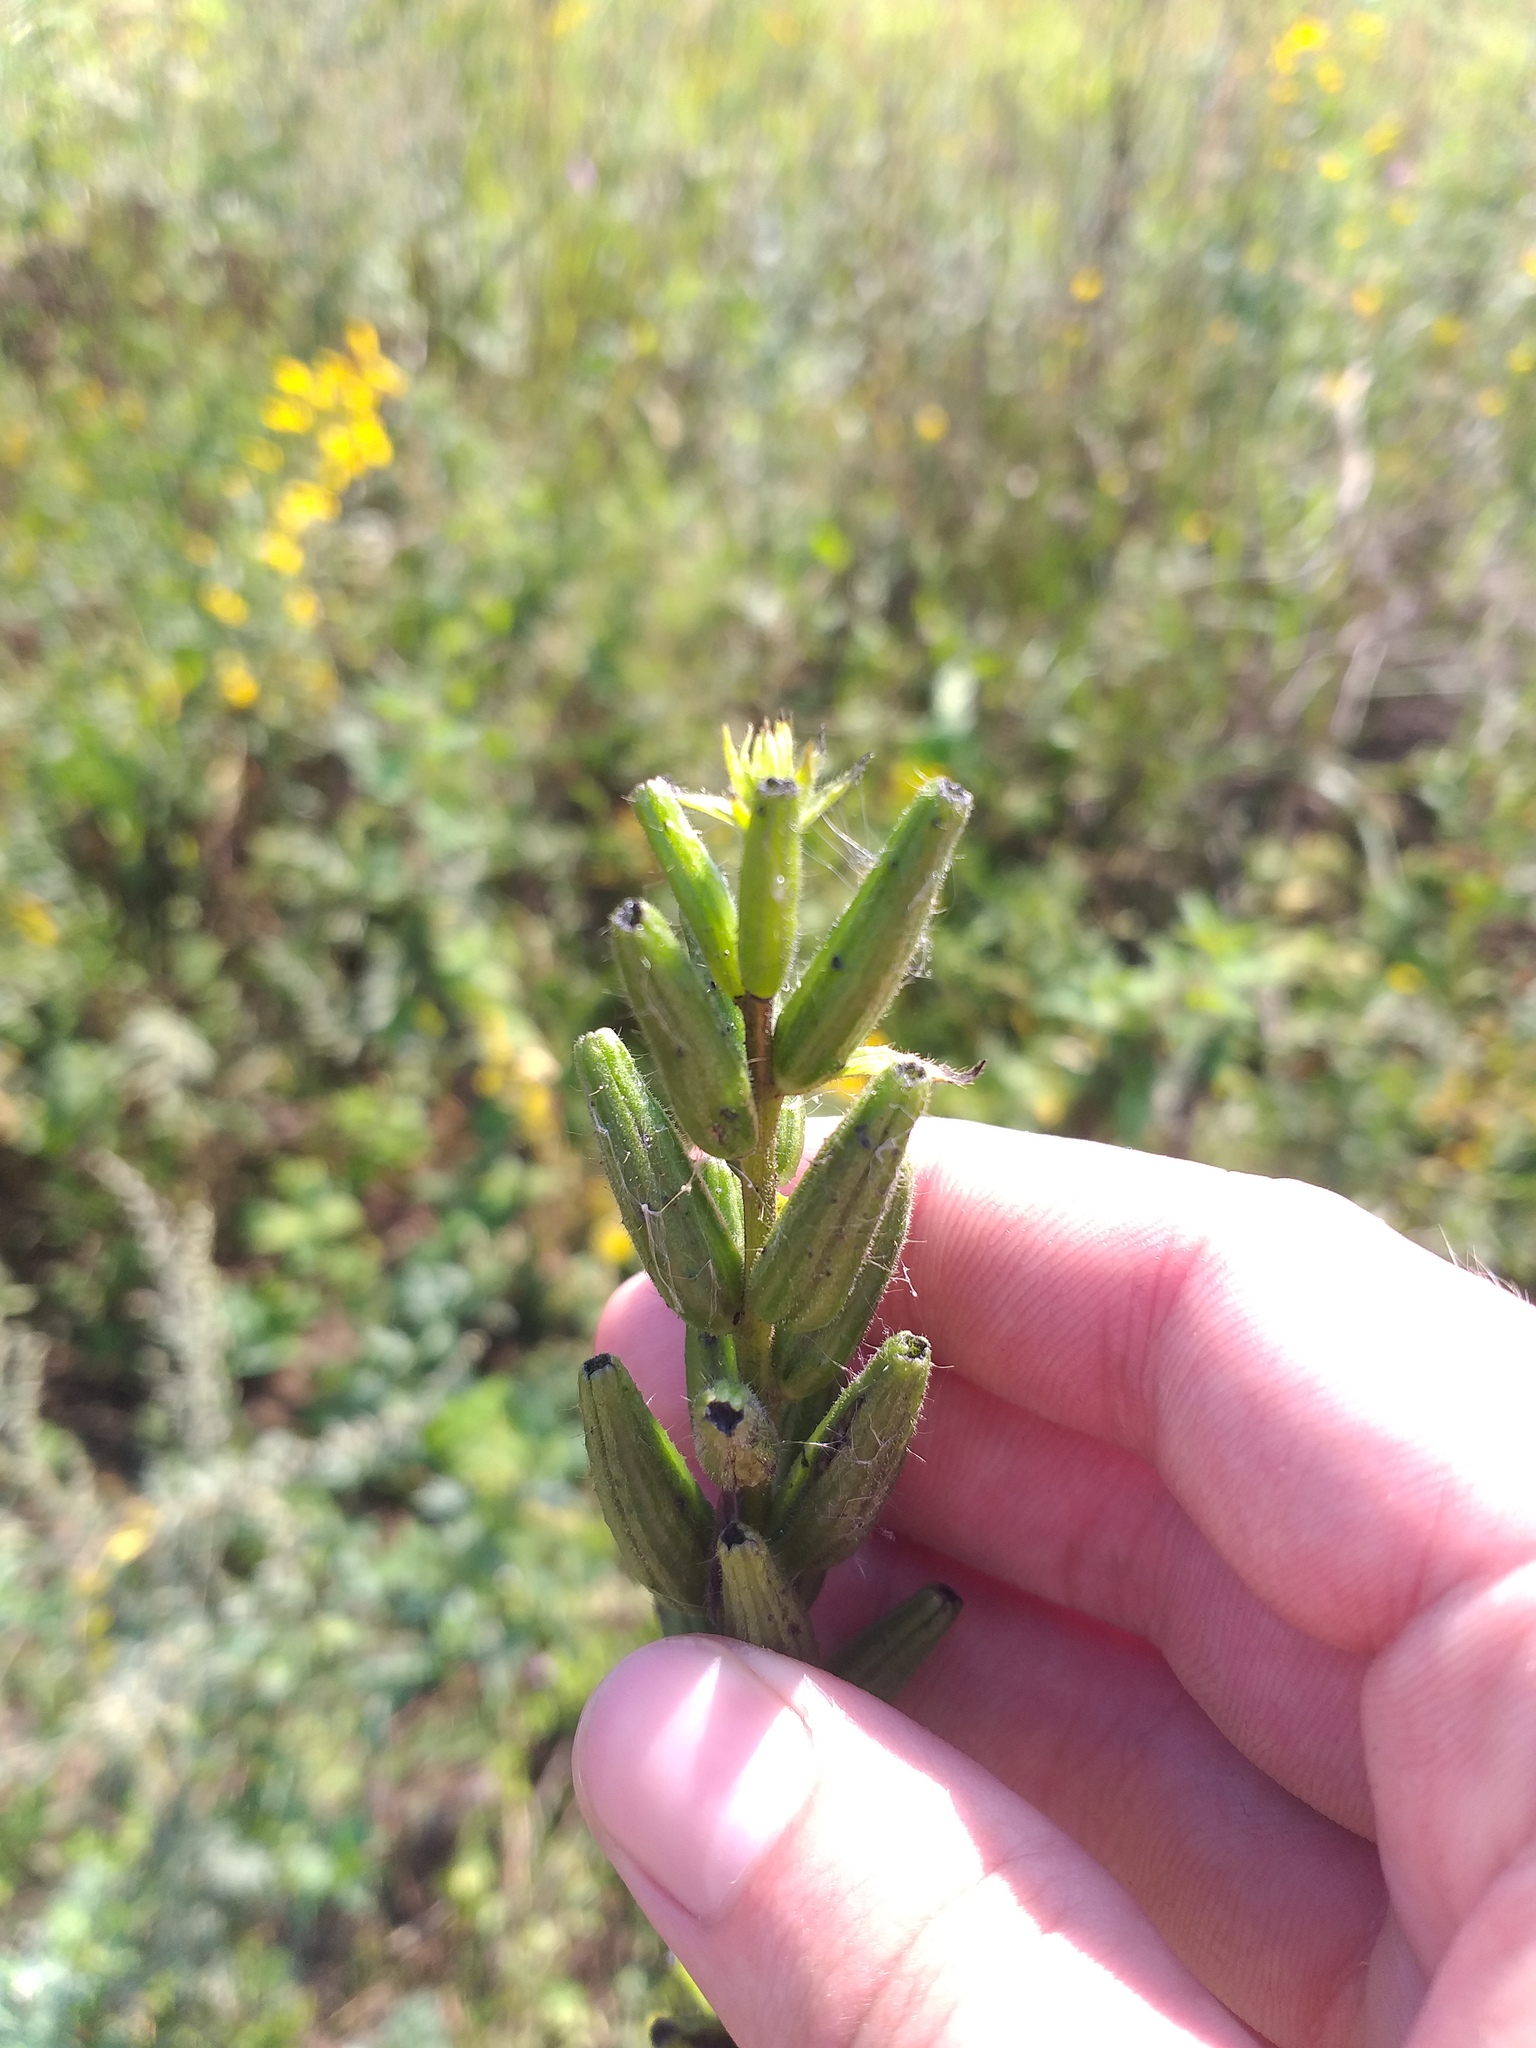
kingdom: Plantae
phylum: Tracheophyta
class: Magnoliopsida
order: Myrtales
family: Onagraceae
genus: Oenothera
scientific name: Oenothera rubricaulis
